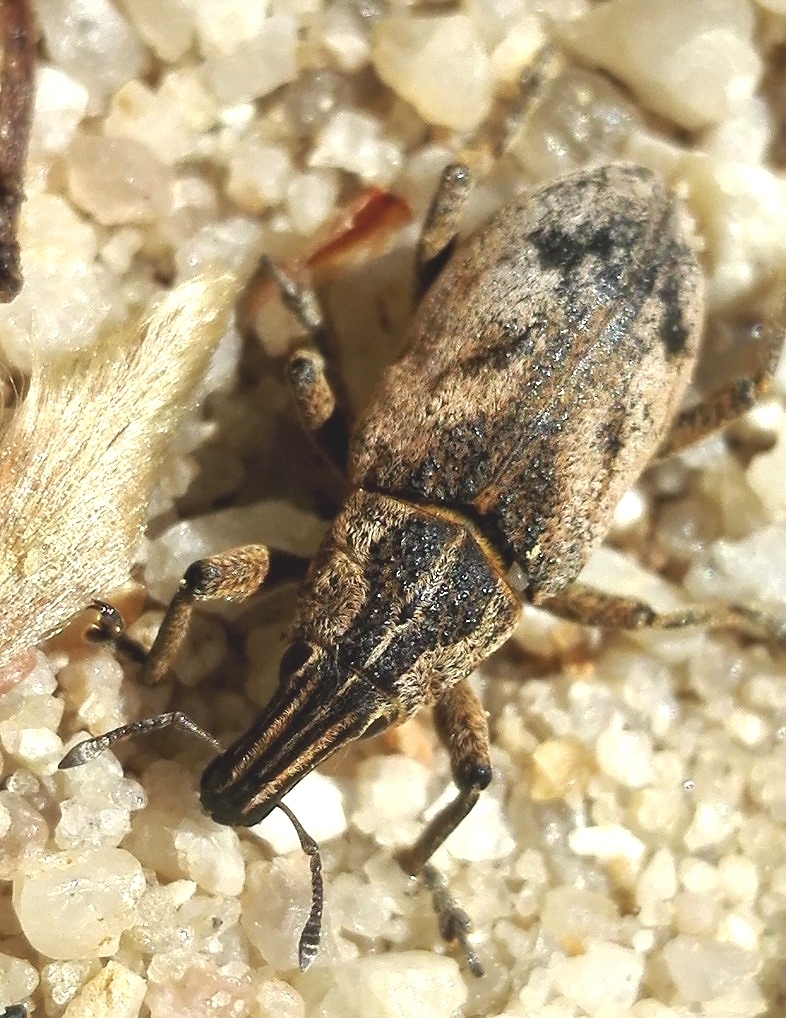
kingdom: Animalia
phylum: Arthropoda
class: Insecta
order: Coleoptera
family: Curculionidae
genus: Cleonis
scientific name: Cleonis pigra
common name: Large thistle weevil
